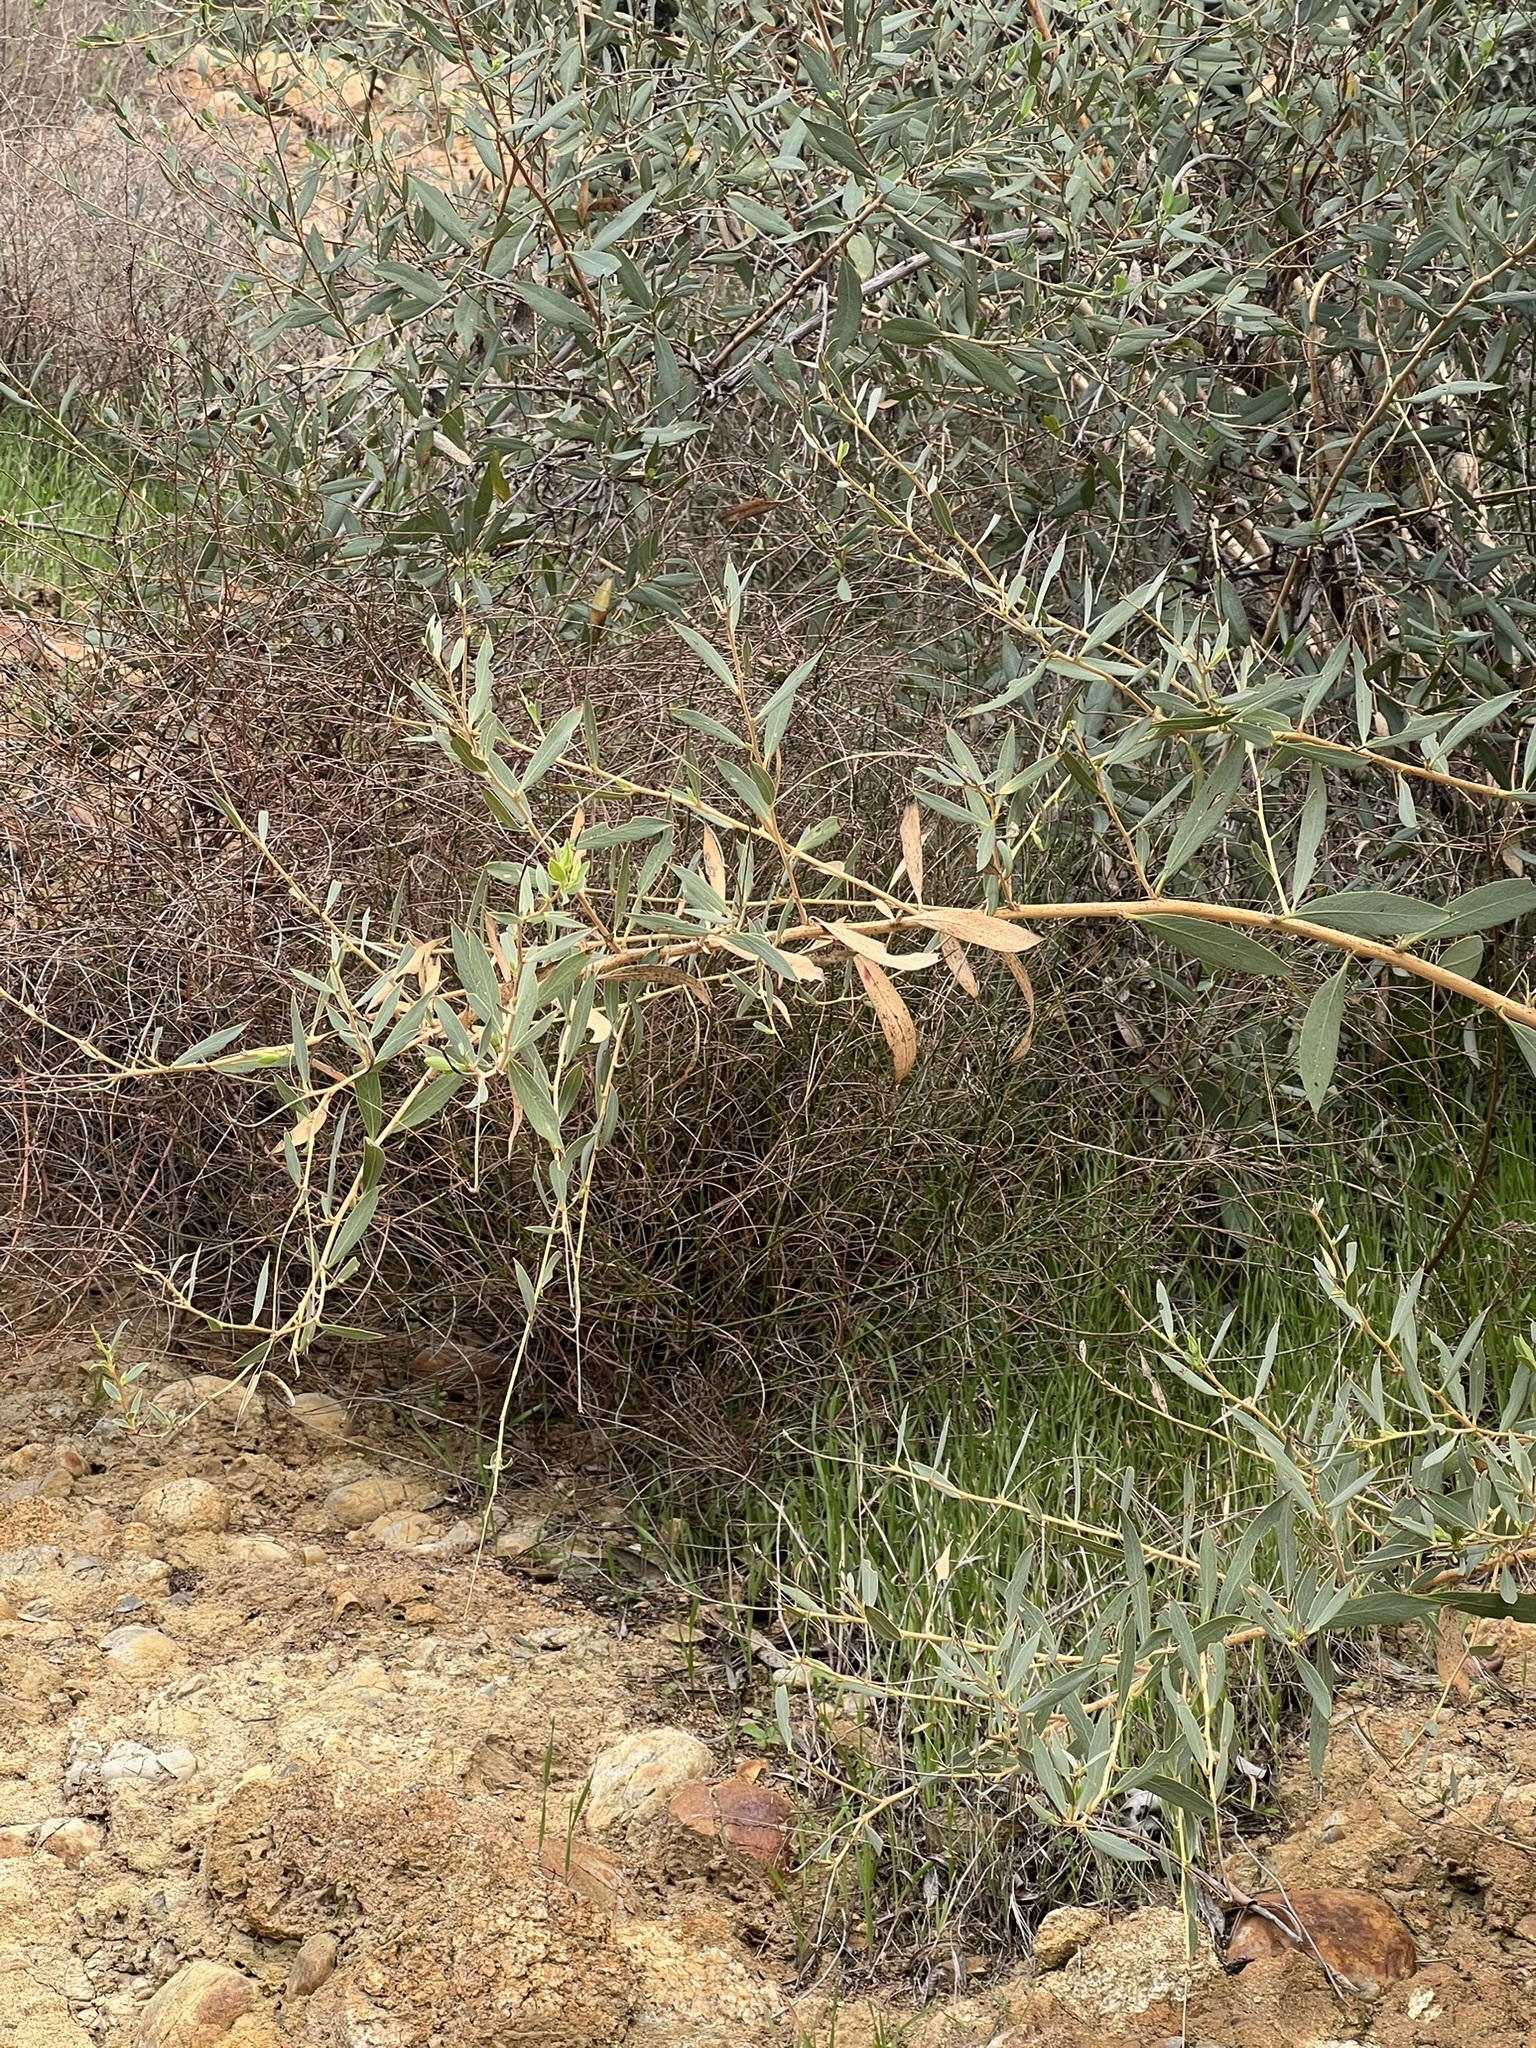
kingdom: Plantae
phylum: Tracheophyta
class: Magnoliopsida
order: Ranunculales
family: Papaveraceae
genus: Dendromecon
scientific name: Dendromecon rigida
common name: Tree poppy
